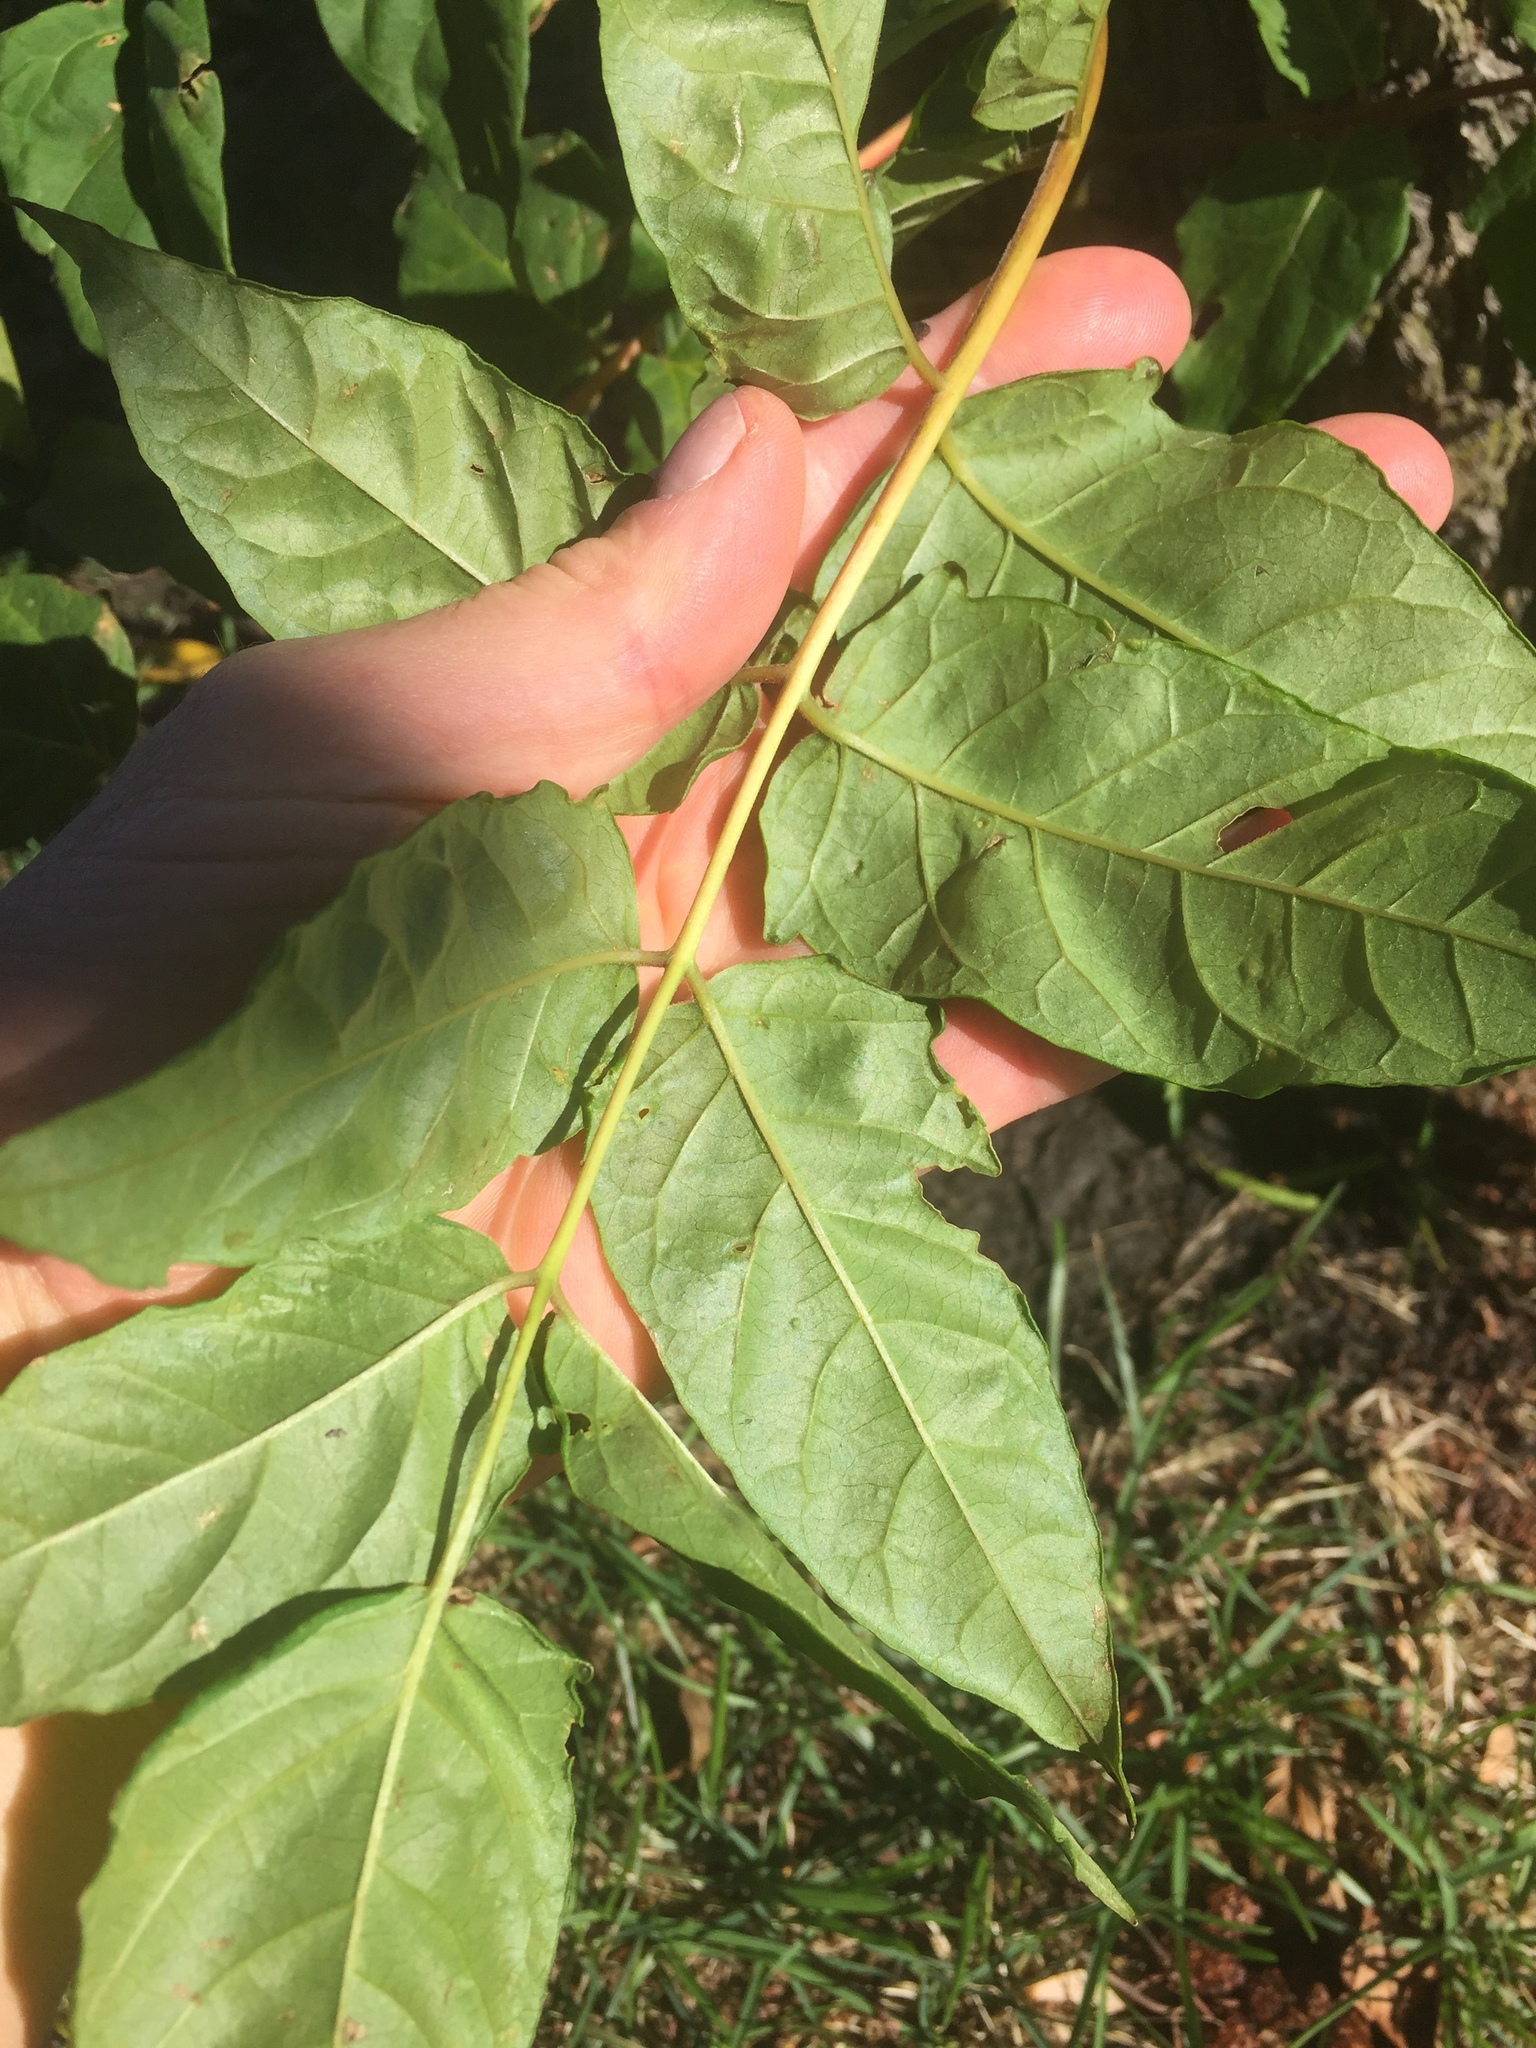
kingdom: Plantae
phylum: Tracheophyta
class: Magnoliopsida
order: Sapindales
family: Simaroubaceae
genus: Ailanthus
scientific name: Ailanthus altissima
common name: Tree-of-heaven
